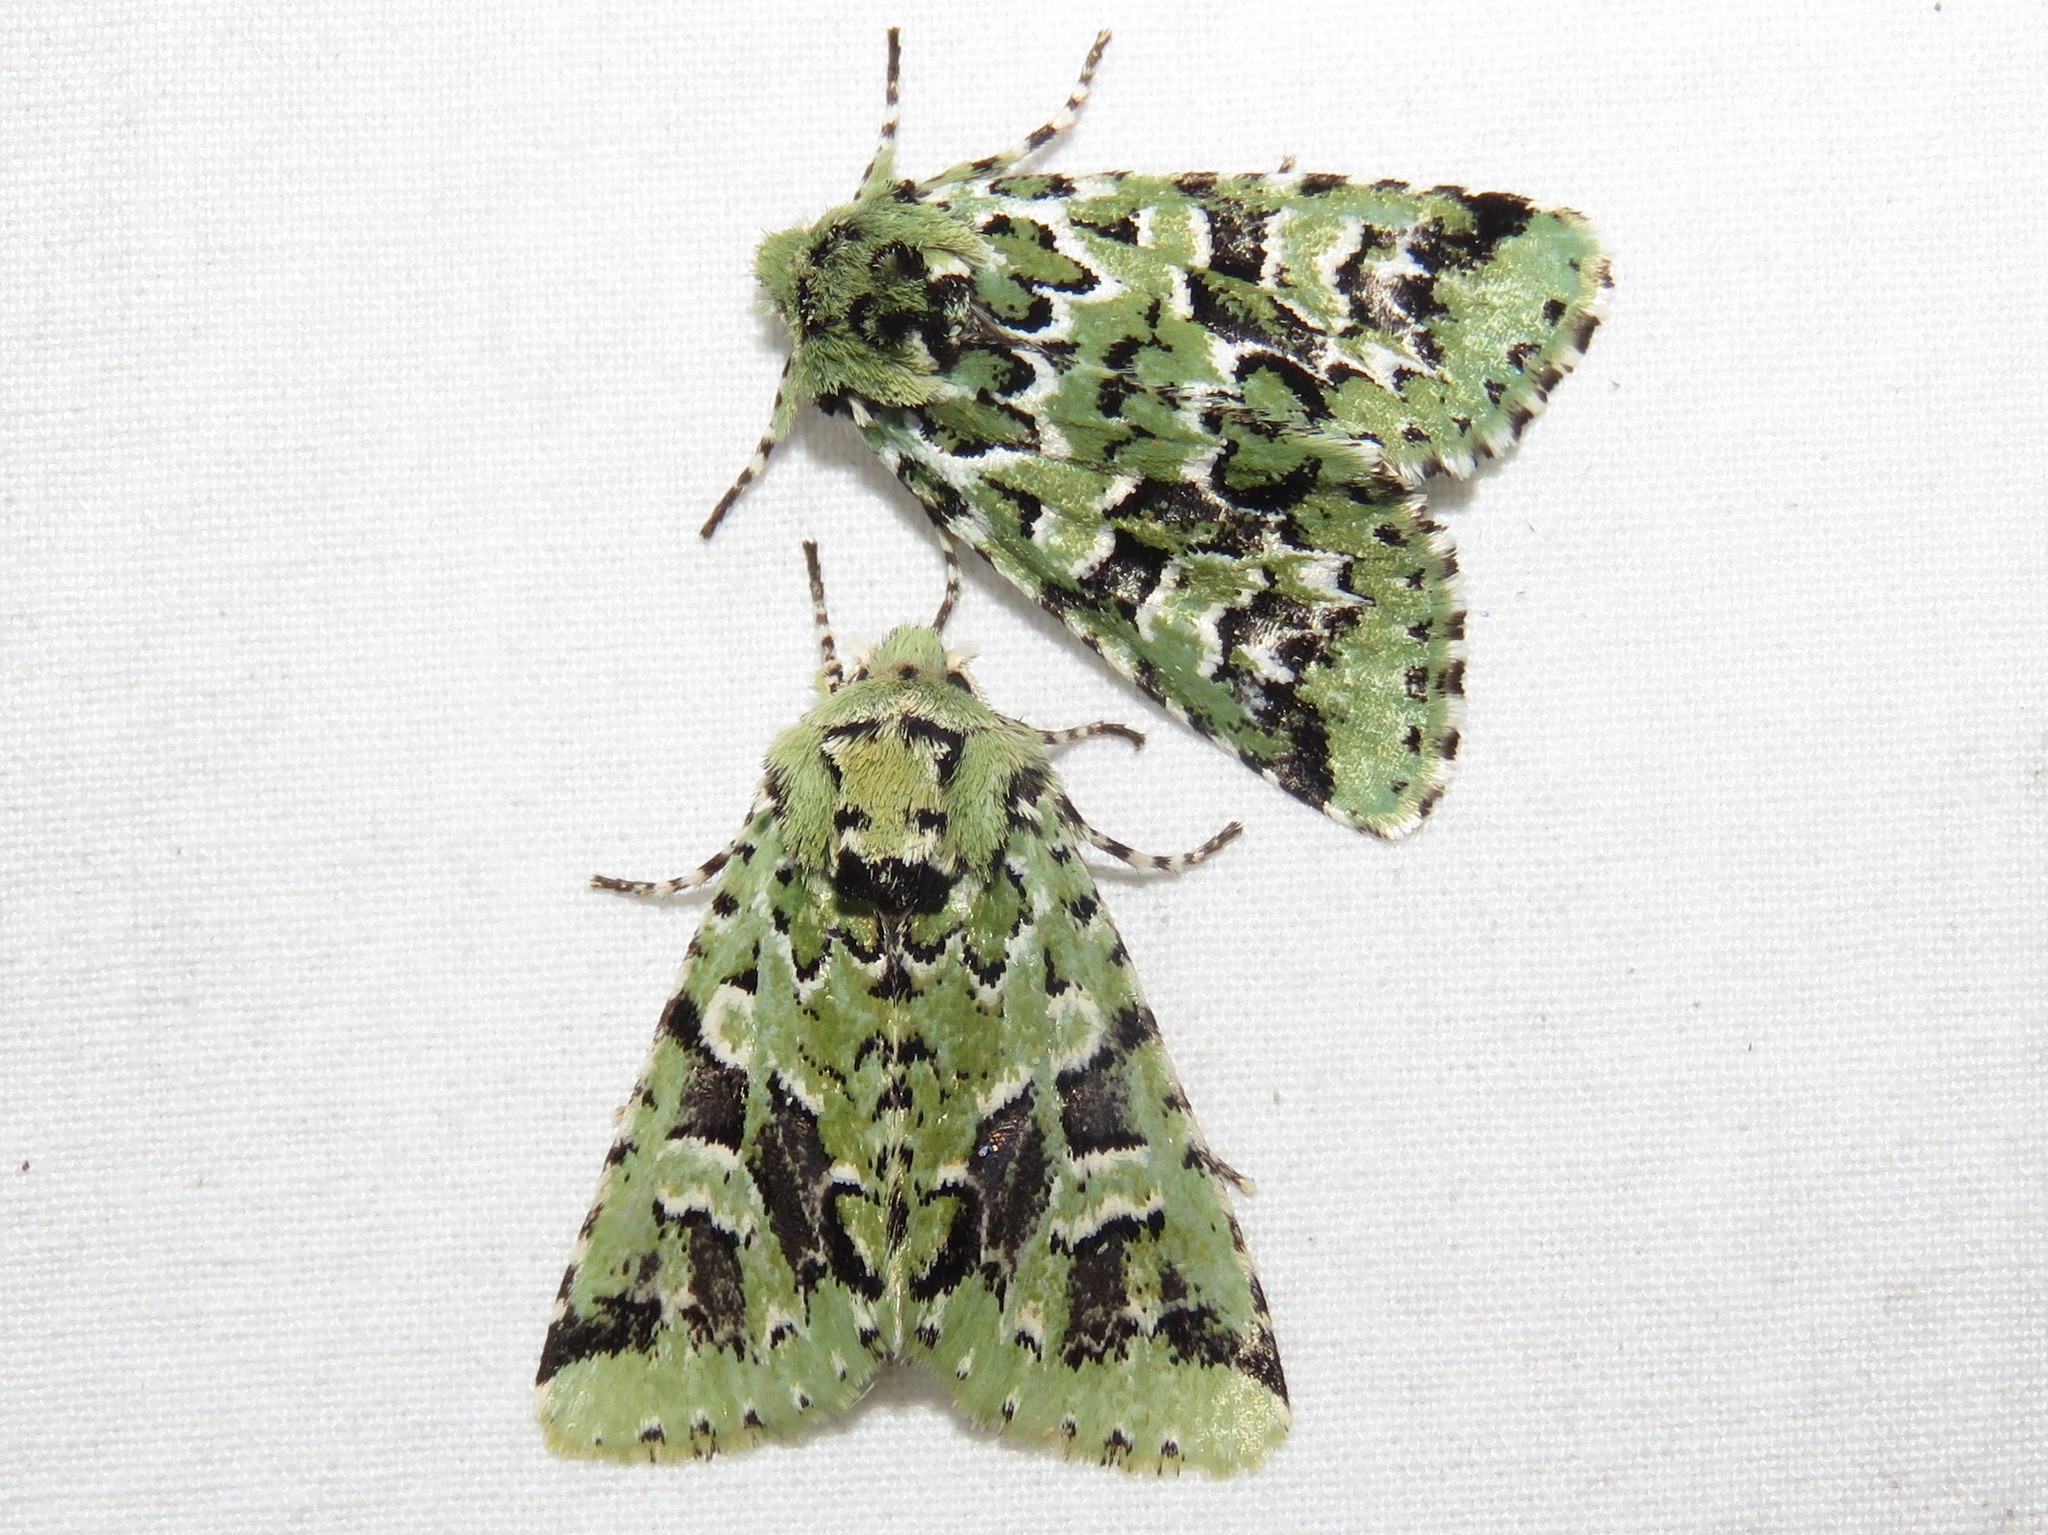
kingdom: Animalia
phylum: Arthropoda
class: Insecta
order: Lepidoptera
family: Noctuidae
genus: Feralia
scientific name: Feralia comstocki
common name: Comstock's sallow
